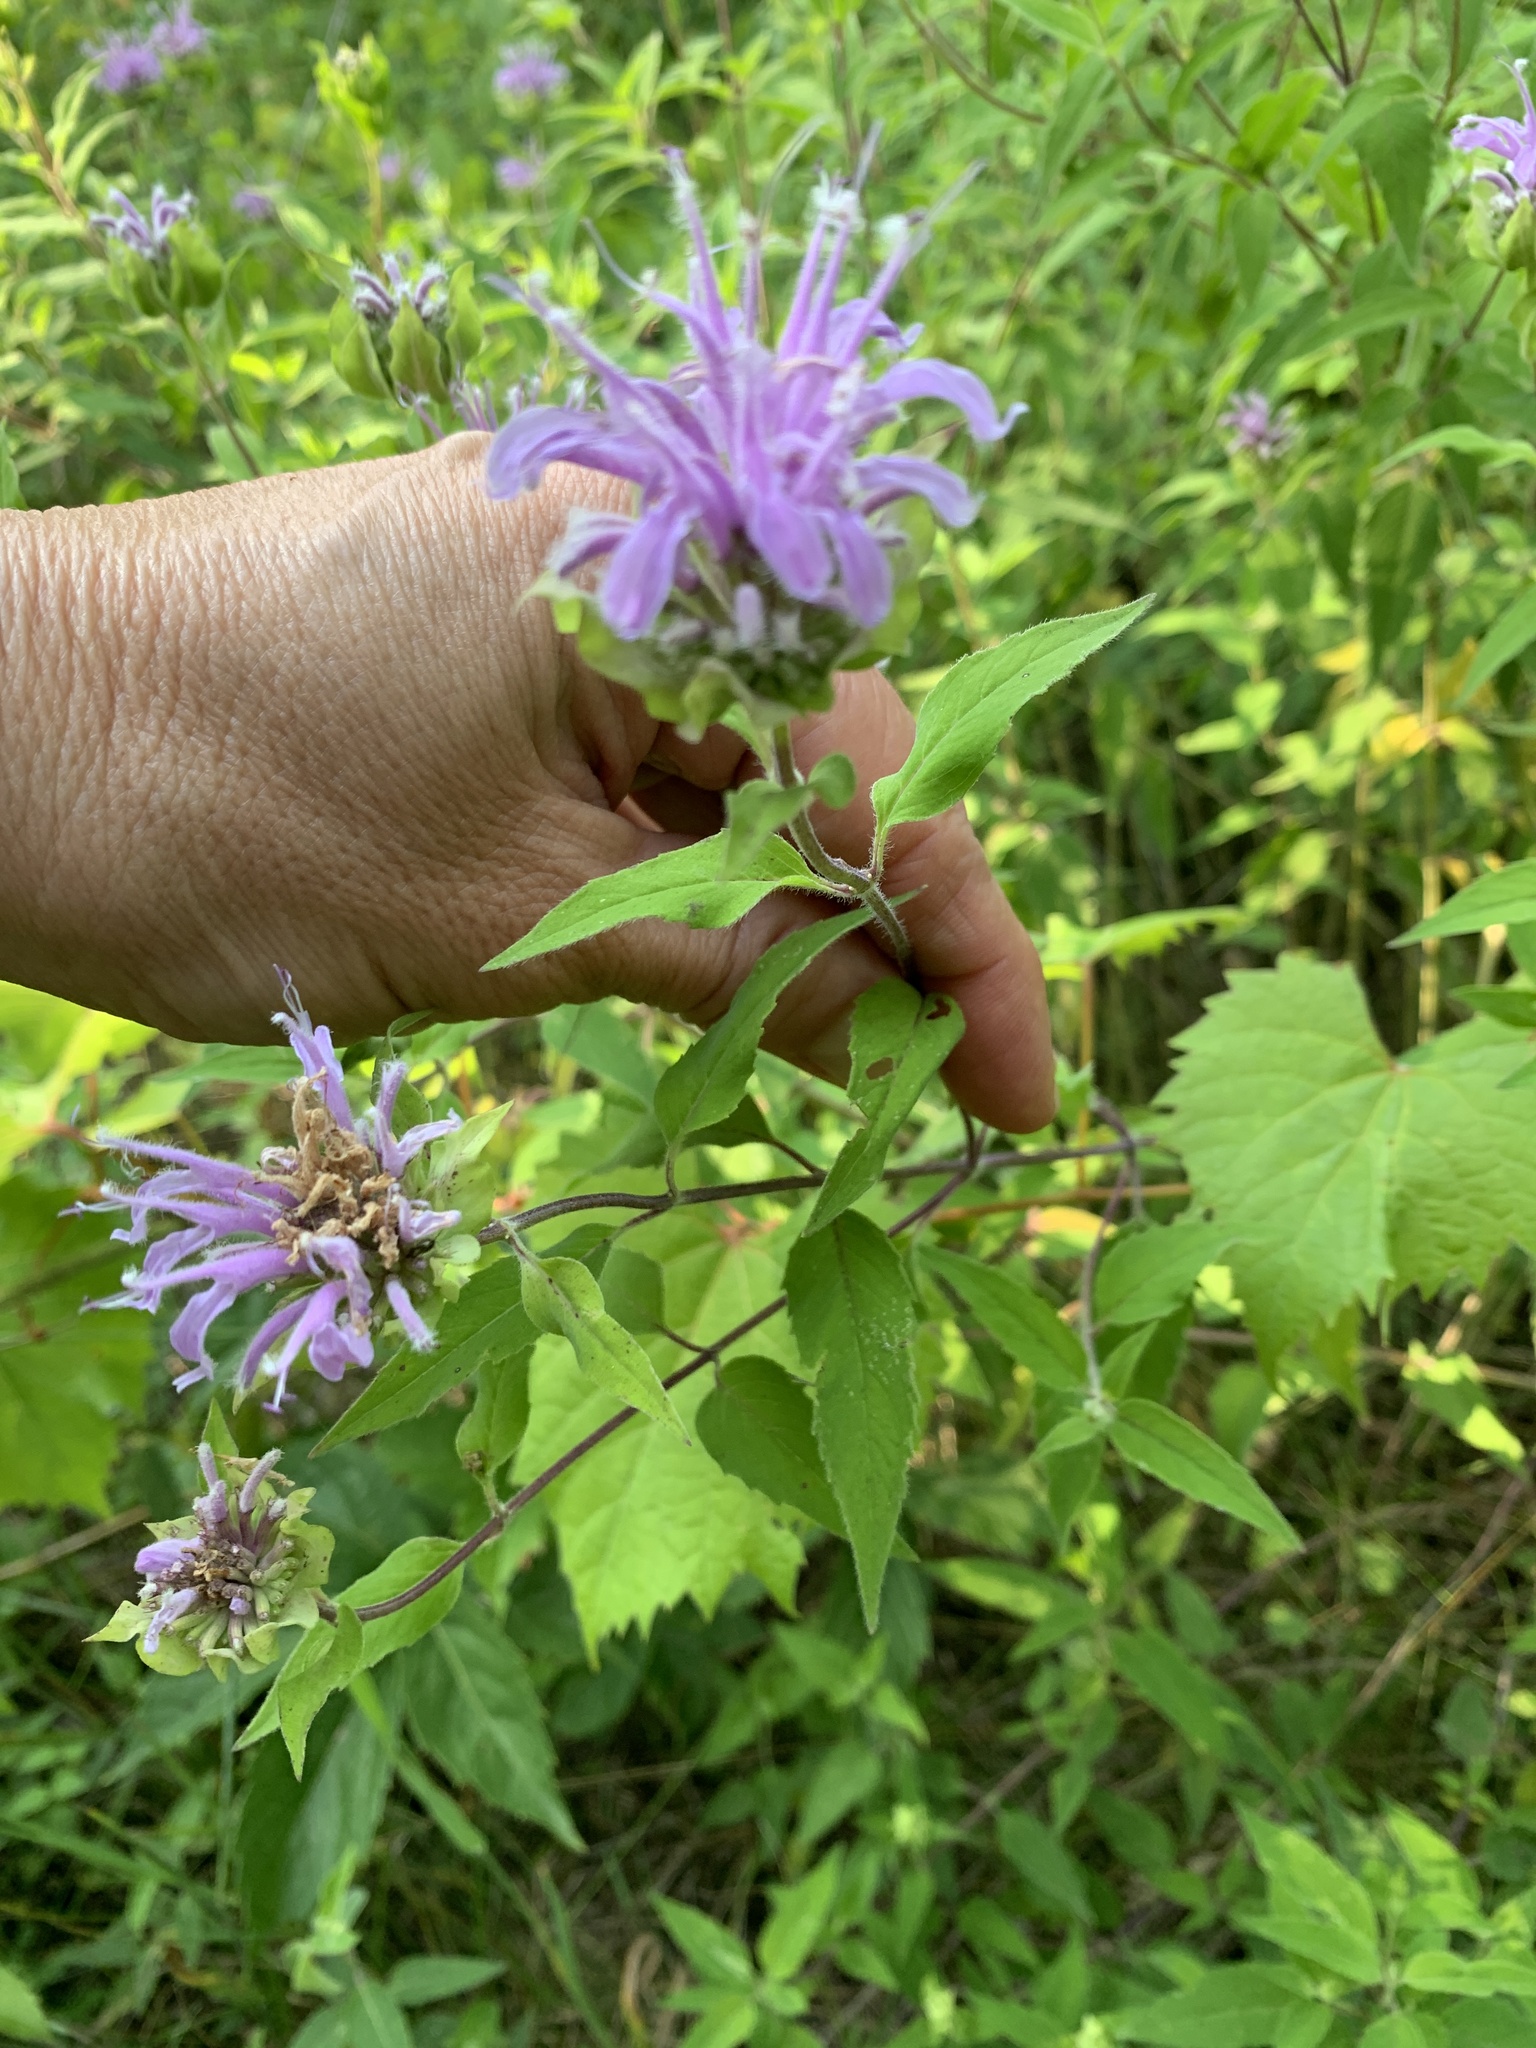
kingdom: Plantae
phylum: Tracheophyta
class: Magnoliopsida
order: Lamiales
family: Lamiaceae
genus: Monarda
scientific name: Monarda fistulosa
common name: Purple beebalm
